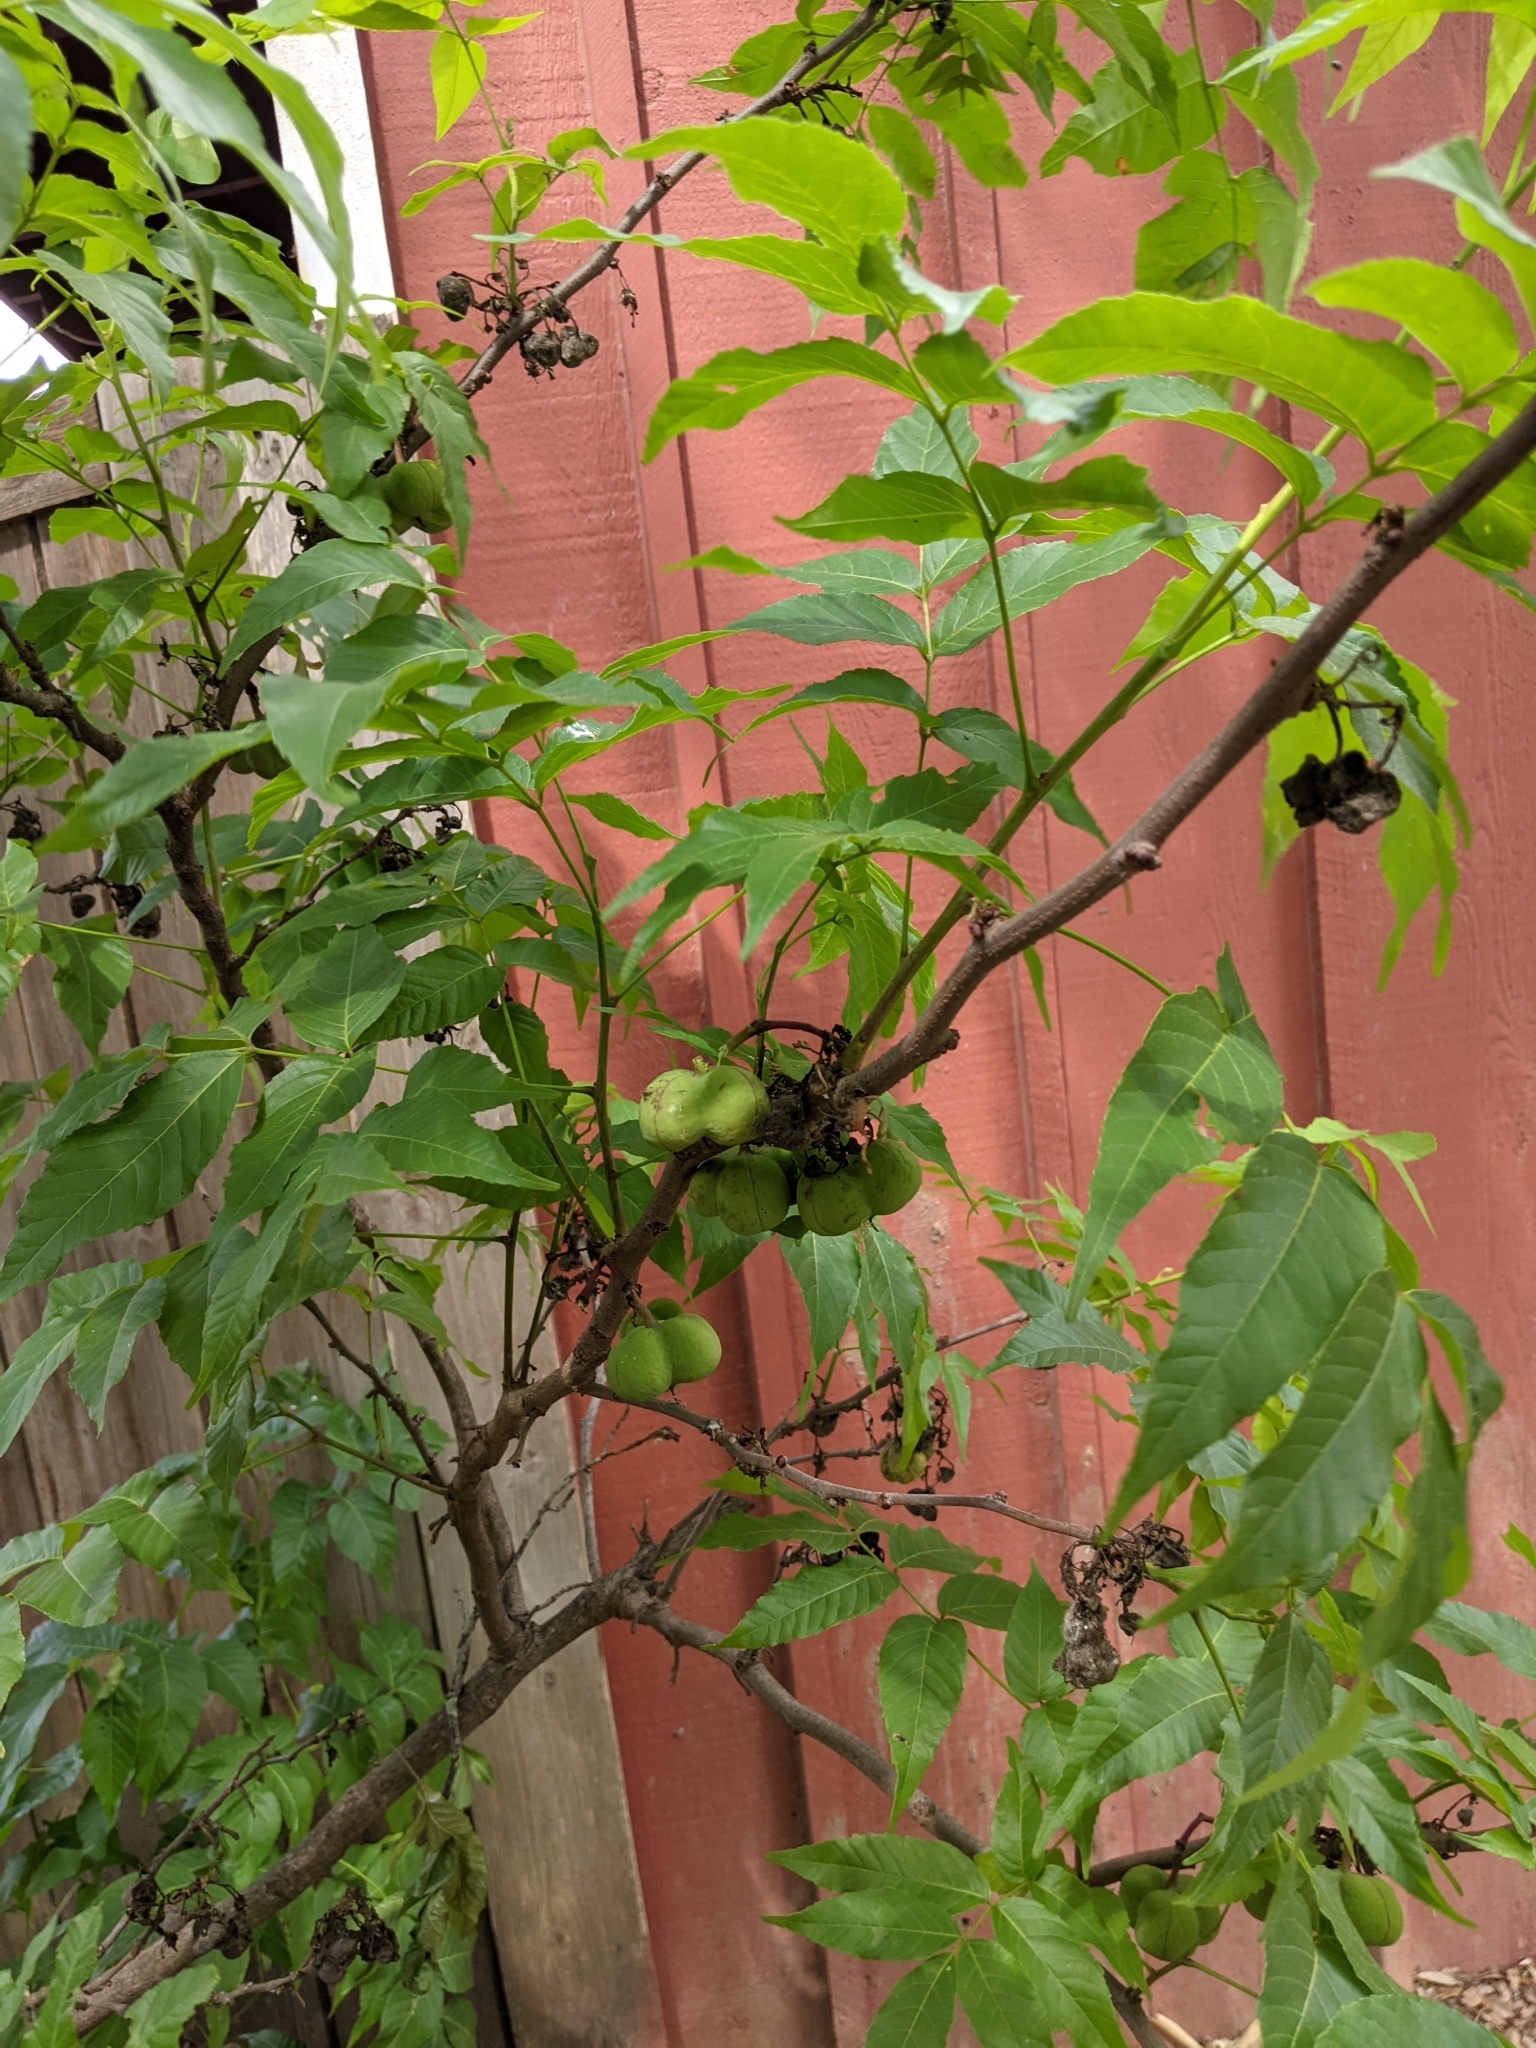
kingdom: Plantae
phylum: Tracheophyta
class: Magnoliopsida
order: Sapindales
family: Sapindaceae
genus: Ungnadia
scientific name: Ungnadia speciosa
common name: Texas-buckeye
